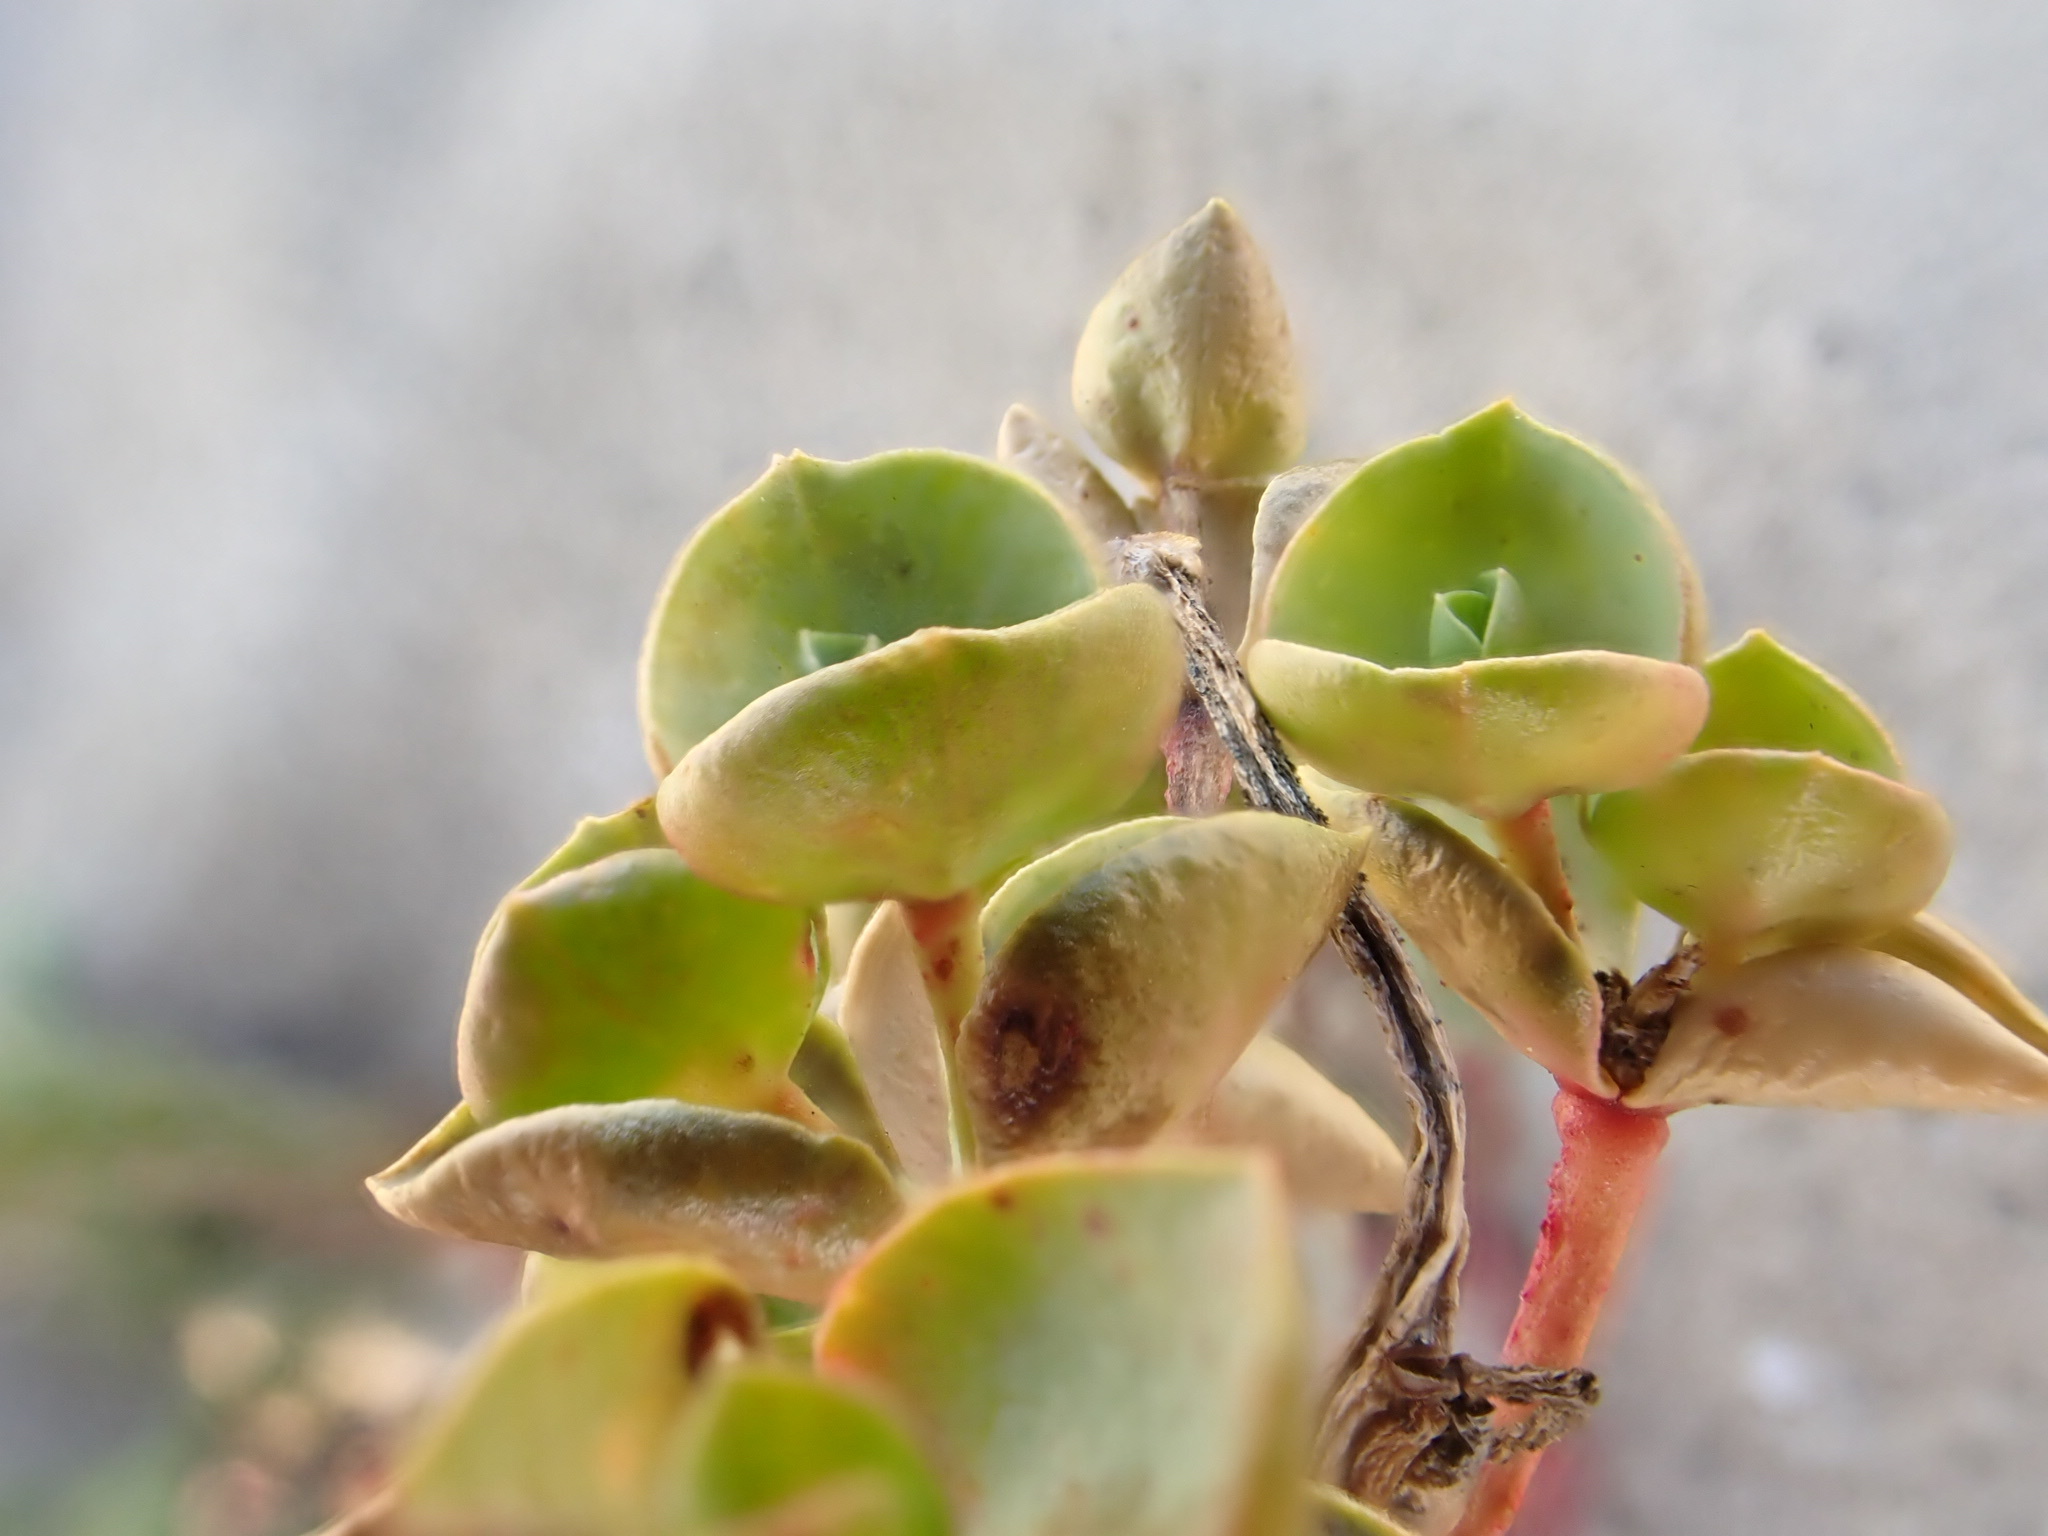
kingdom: Plantae
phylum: Tracheophyta
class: Magnoliopsida
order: Malpighiales
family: Euphorbiaceae
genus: Euphorbia
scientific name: Euphorbia paralias
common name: Sea spurge
